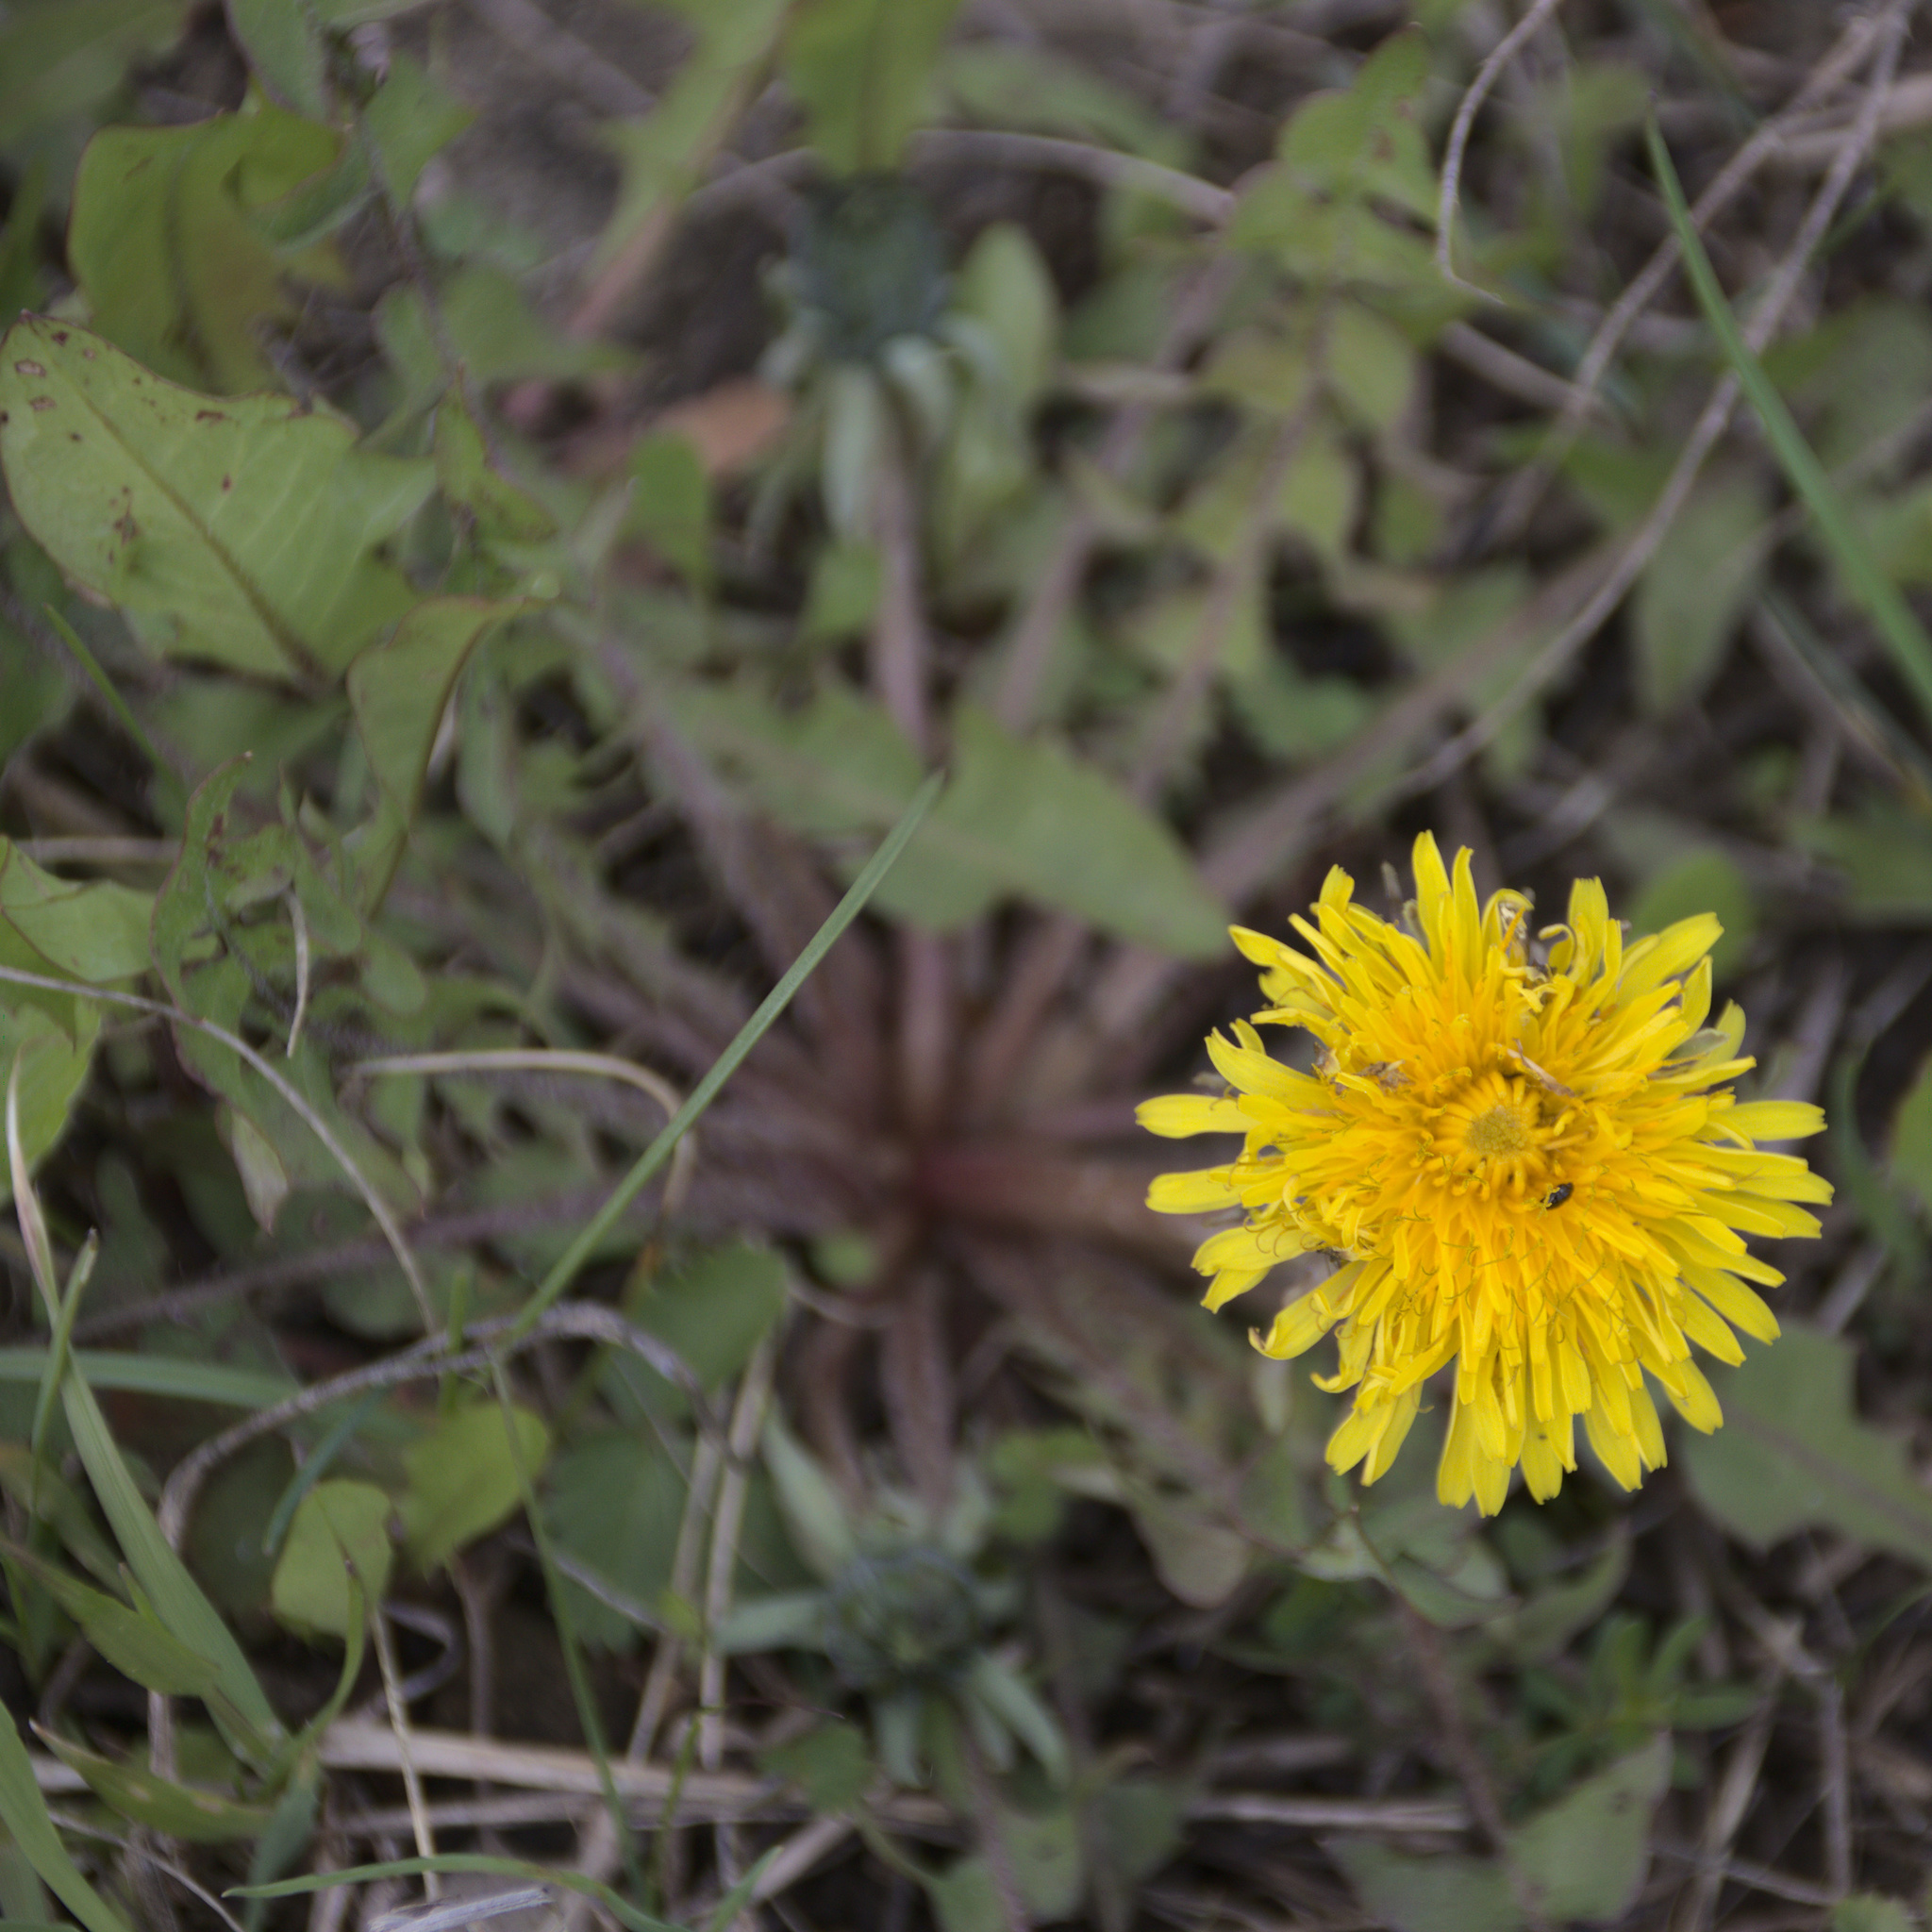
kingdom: Plantae
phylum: Tracheophyta
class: Magnoliopsida
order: Asterales
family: Asteraceae
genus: Taraxacum
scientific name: Taraxacum officinale
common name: Common dandelion
